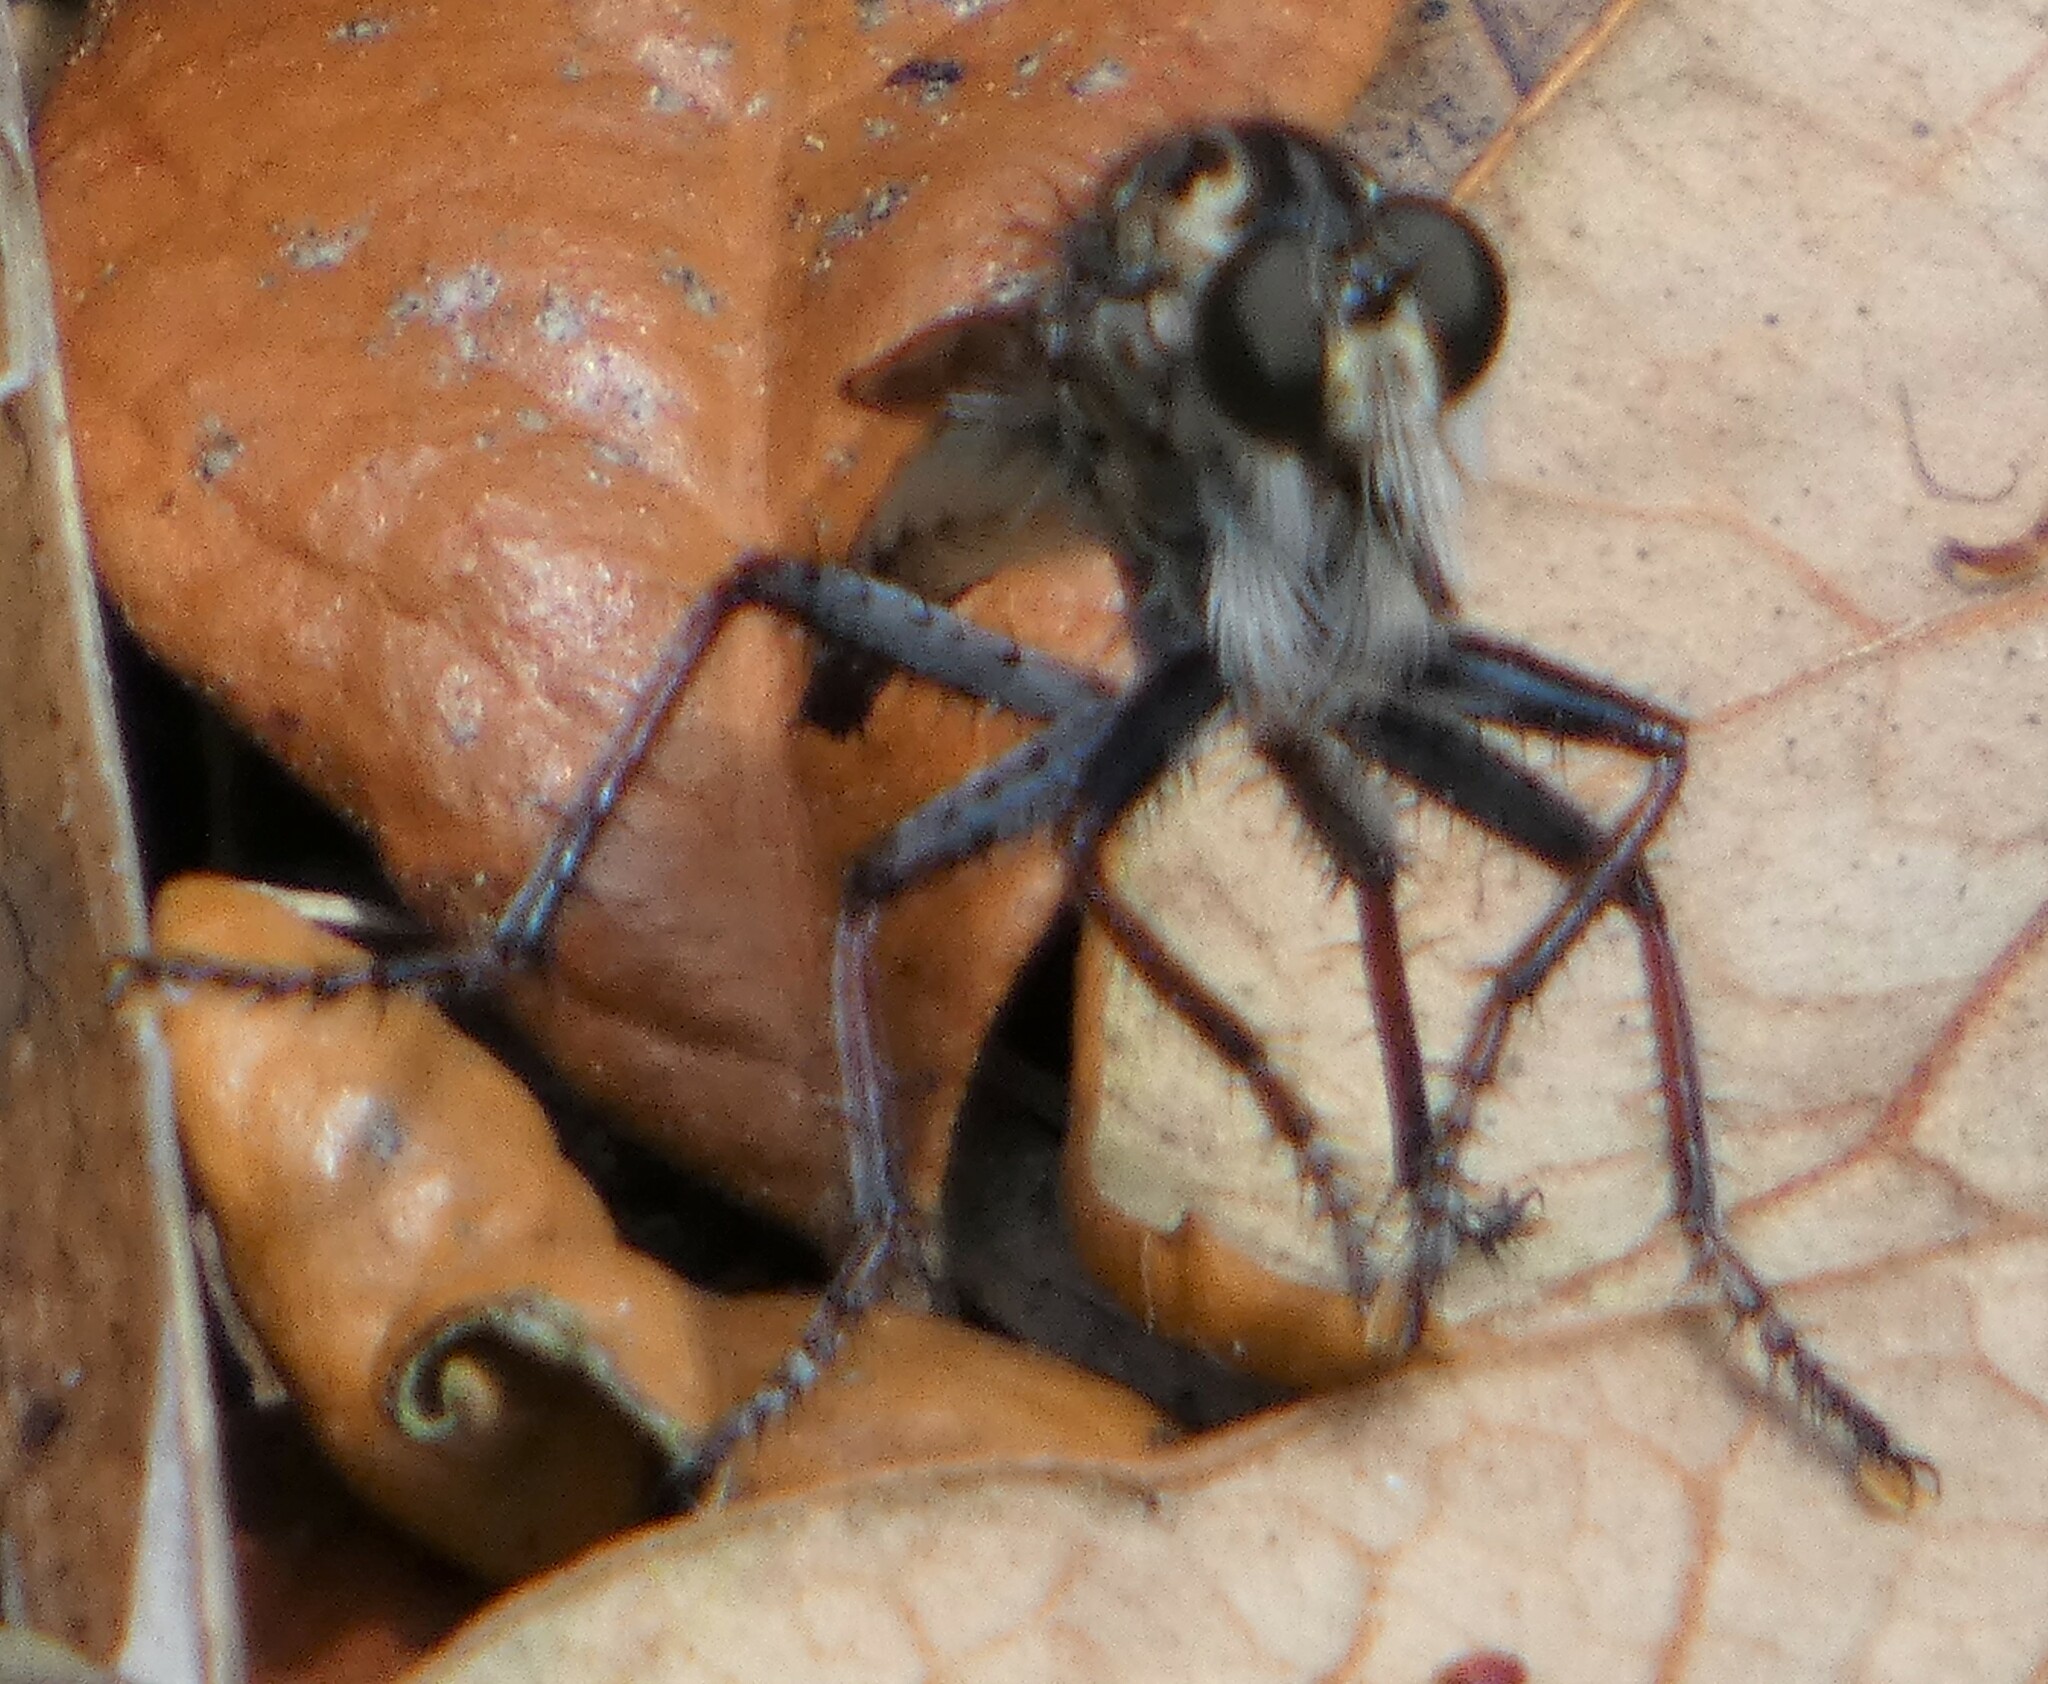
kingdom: Animalia
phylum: Arthropoda
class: Insecta
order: Diptera
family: Asilidae
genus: Proctacanthus
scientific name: Proctacanthus brevipennis
